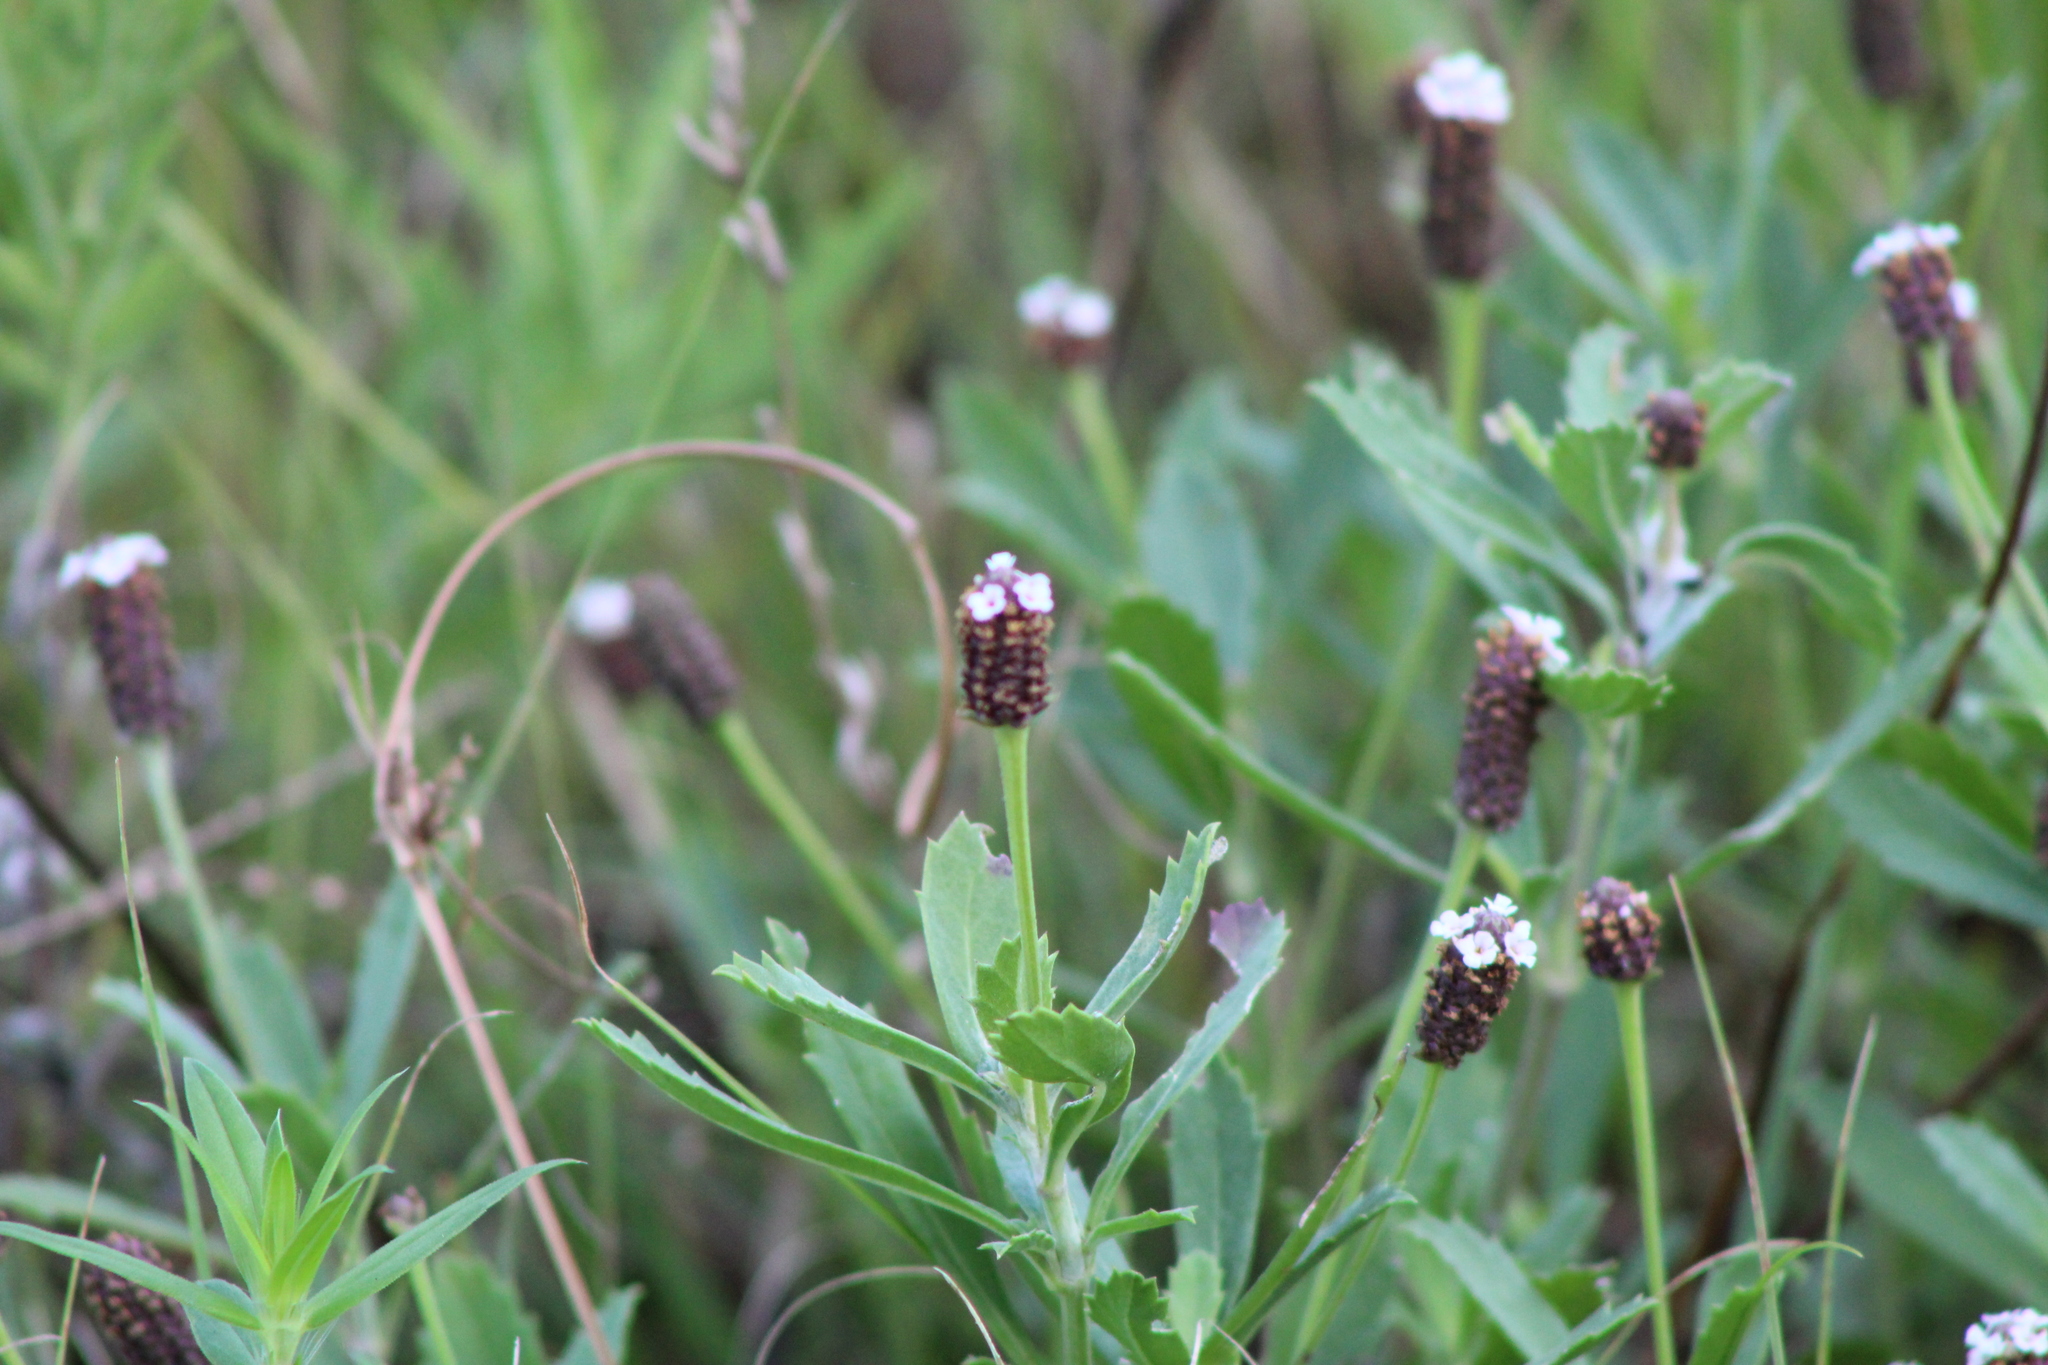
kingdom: Plantae
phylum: Tracheophyta
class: Magnoliopsida
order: Lamiales
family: Verbenaceae
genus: Phyla
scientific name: Phyla nodiflora
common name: Frogfruit
